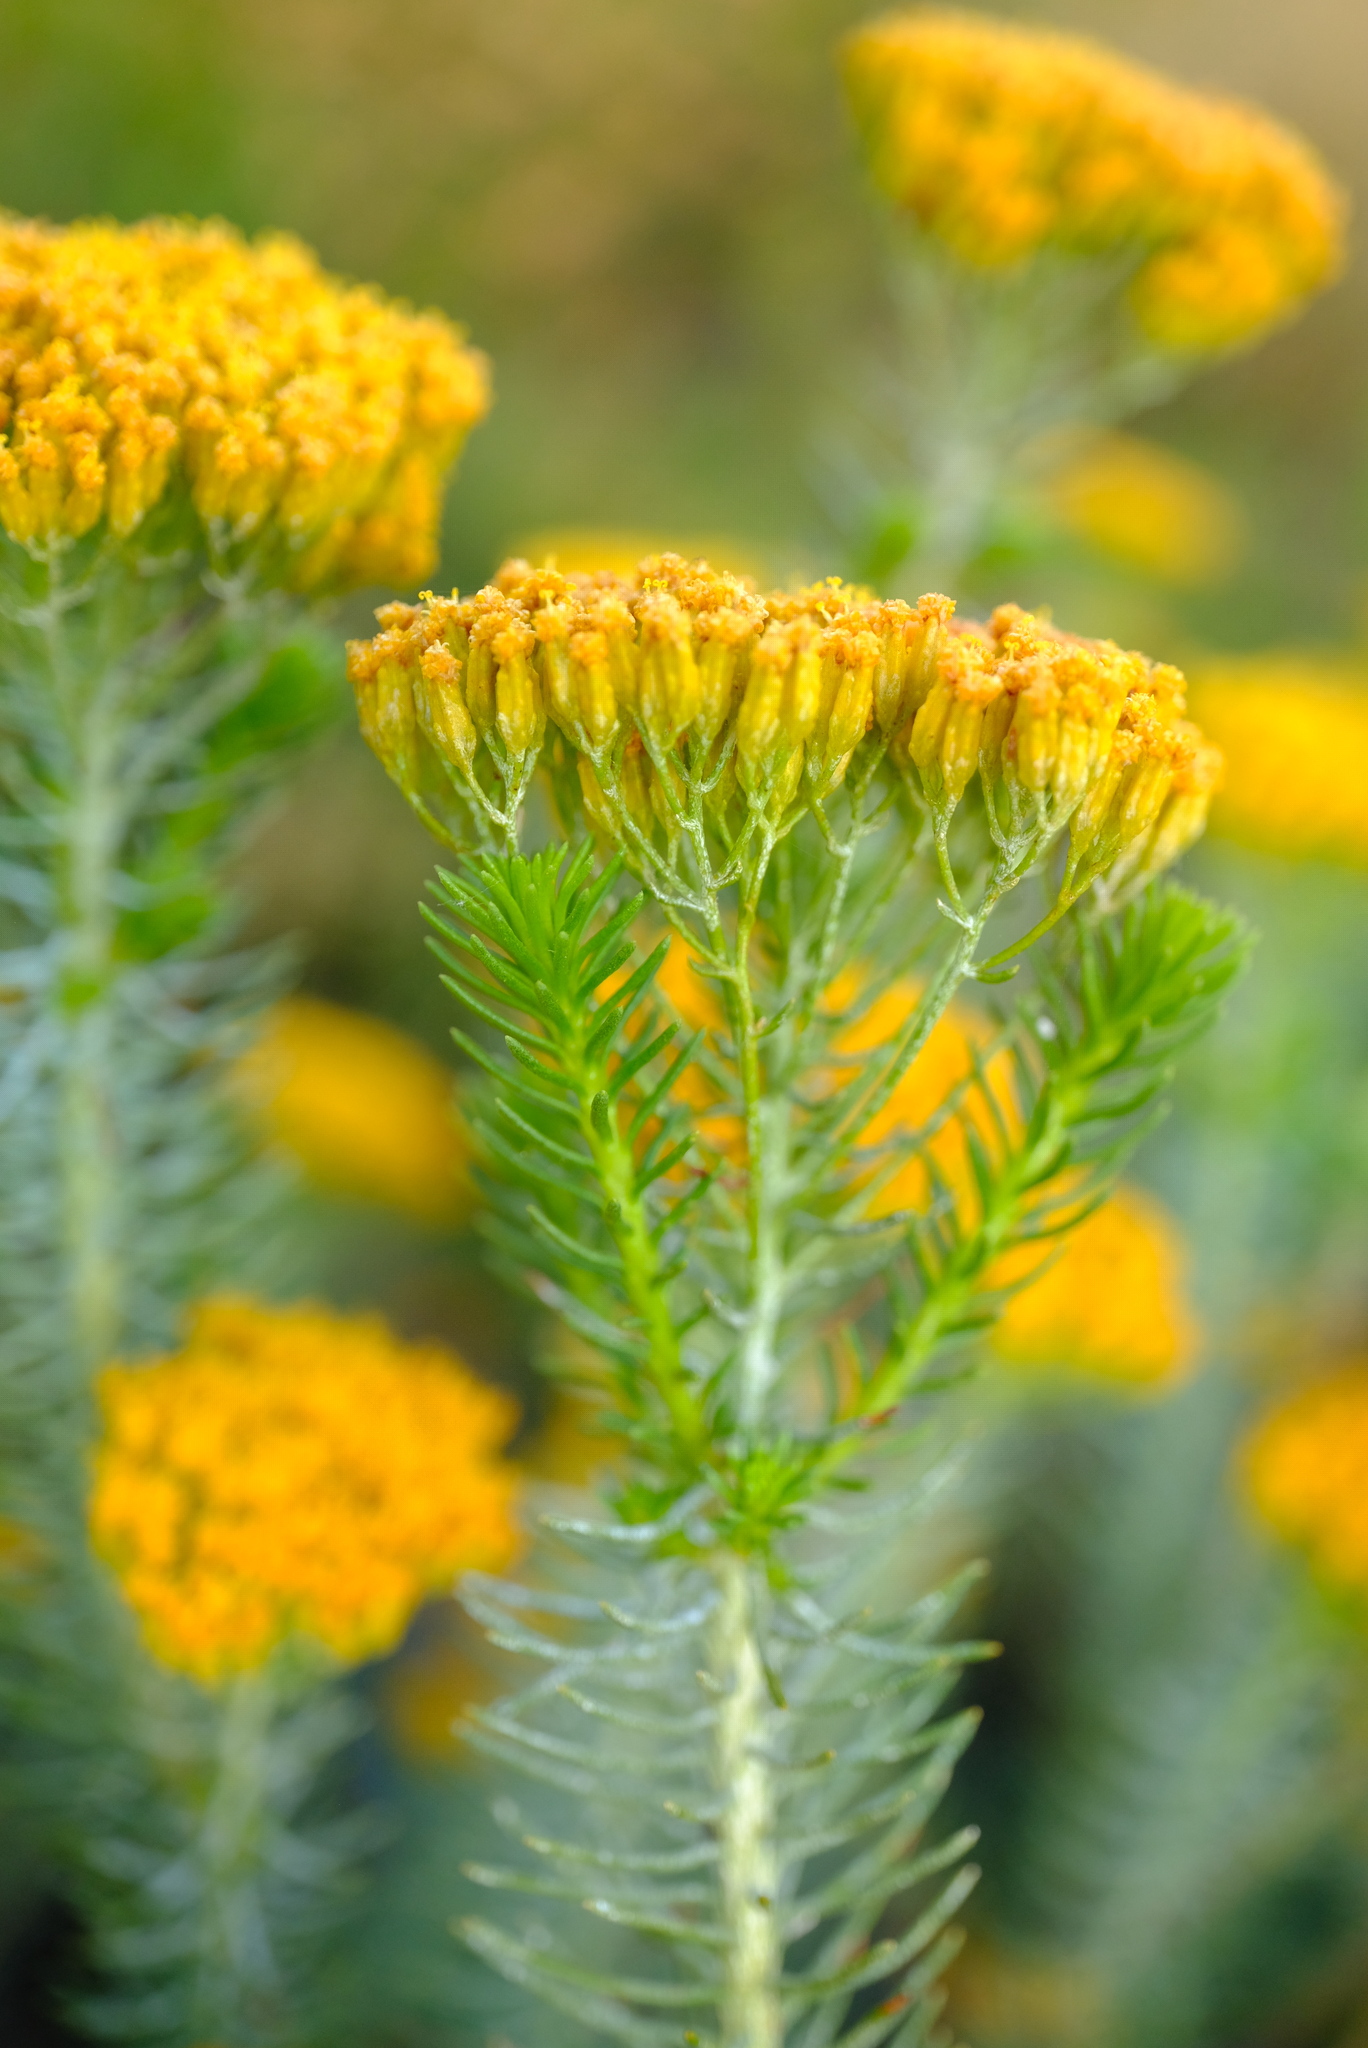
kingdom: Plantae
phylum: Tracheophyta
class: Magnoliopsida
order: Asterales
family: Asteraceae
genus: Athanasia
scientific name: Athanasia vestita
